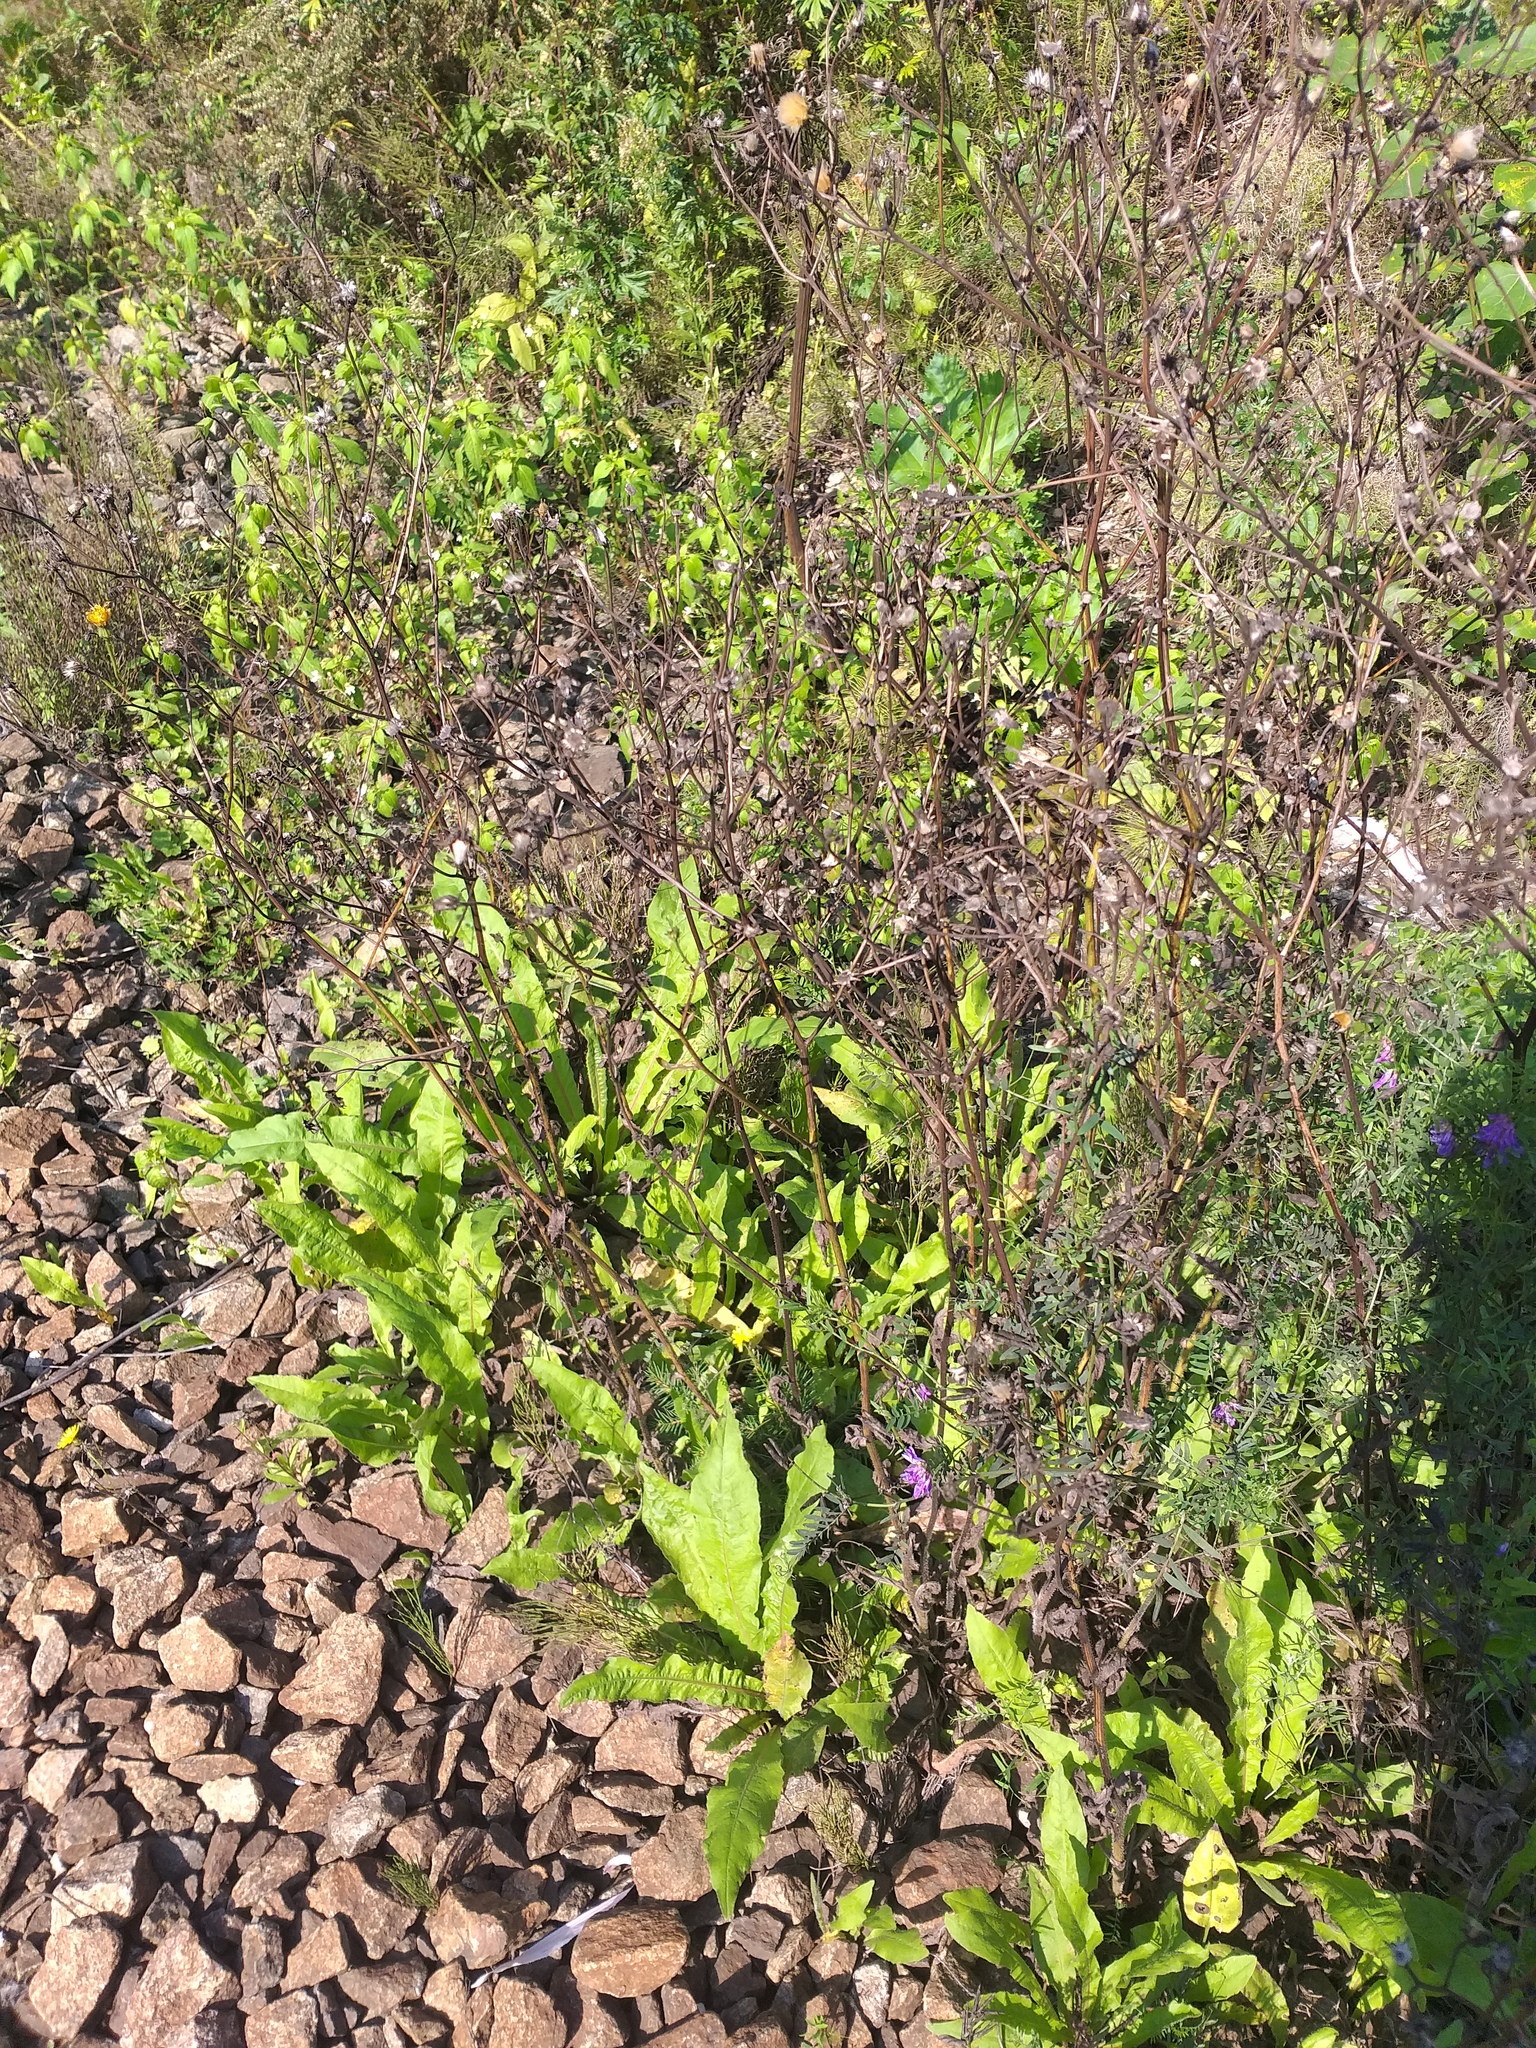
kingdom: Plantae
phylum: Tracheophyta
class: Magnoliopsida
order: Asterales
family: Asteraceae
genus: Picris
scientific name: Picris hieracioides
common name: Hawkweed oxtongue
